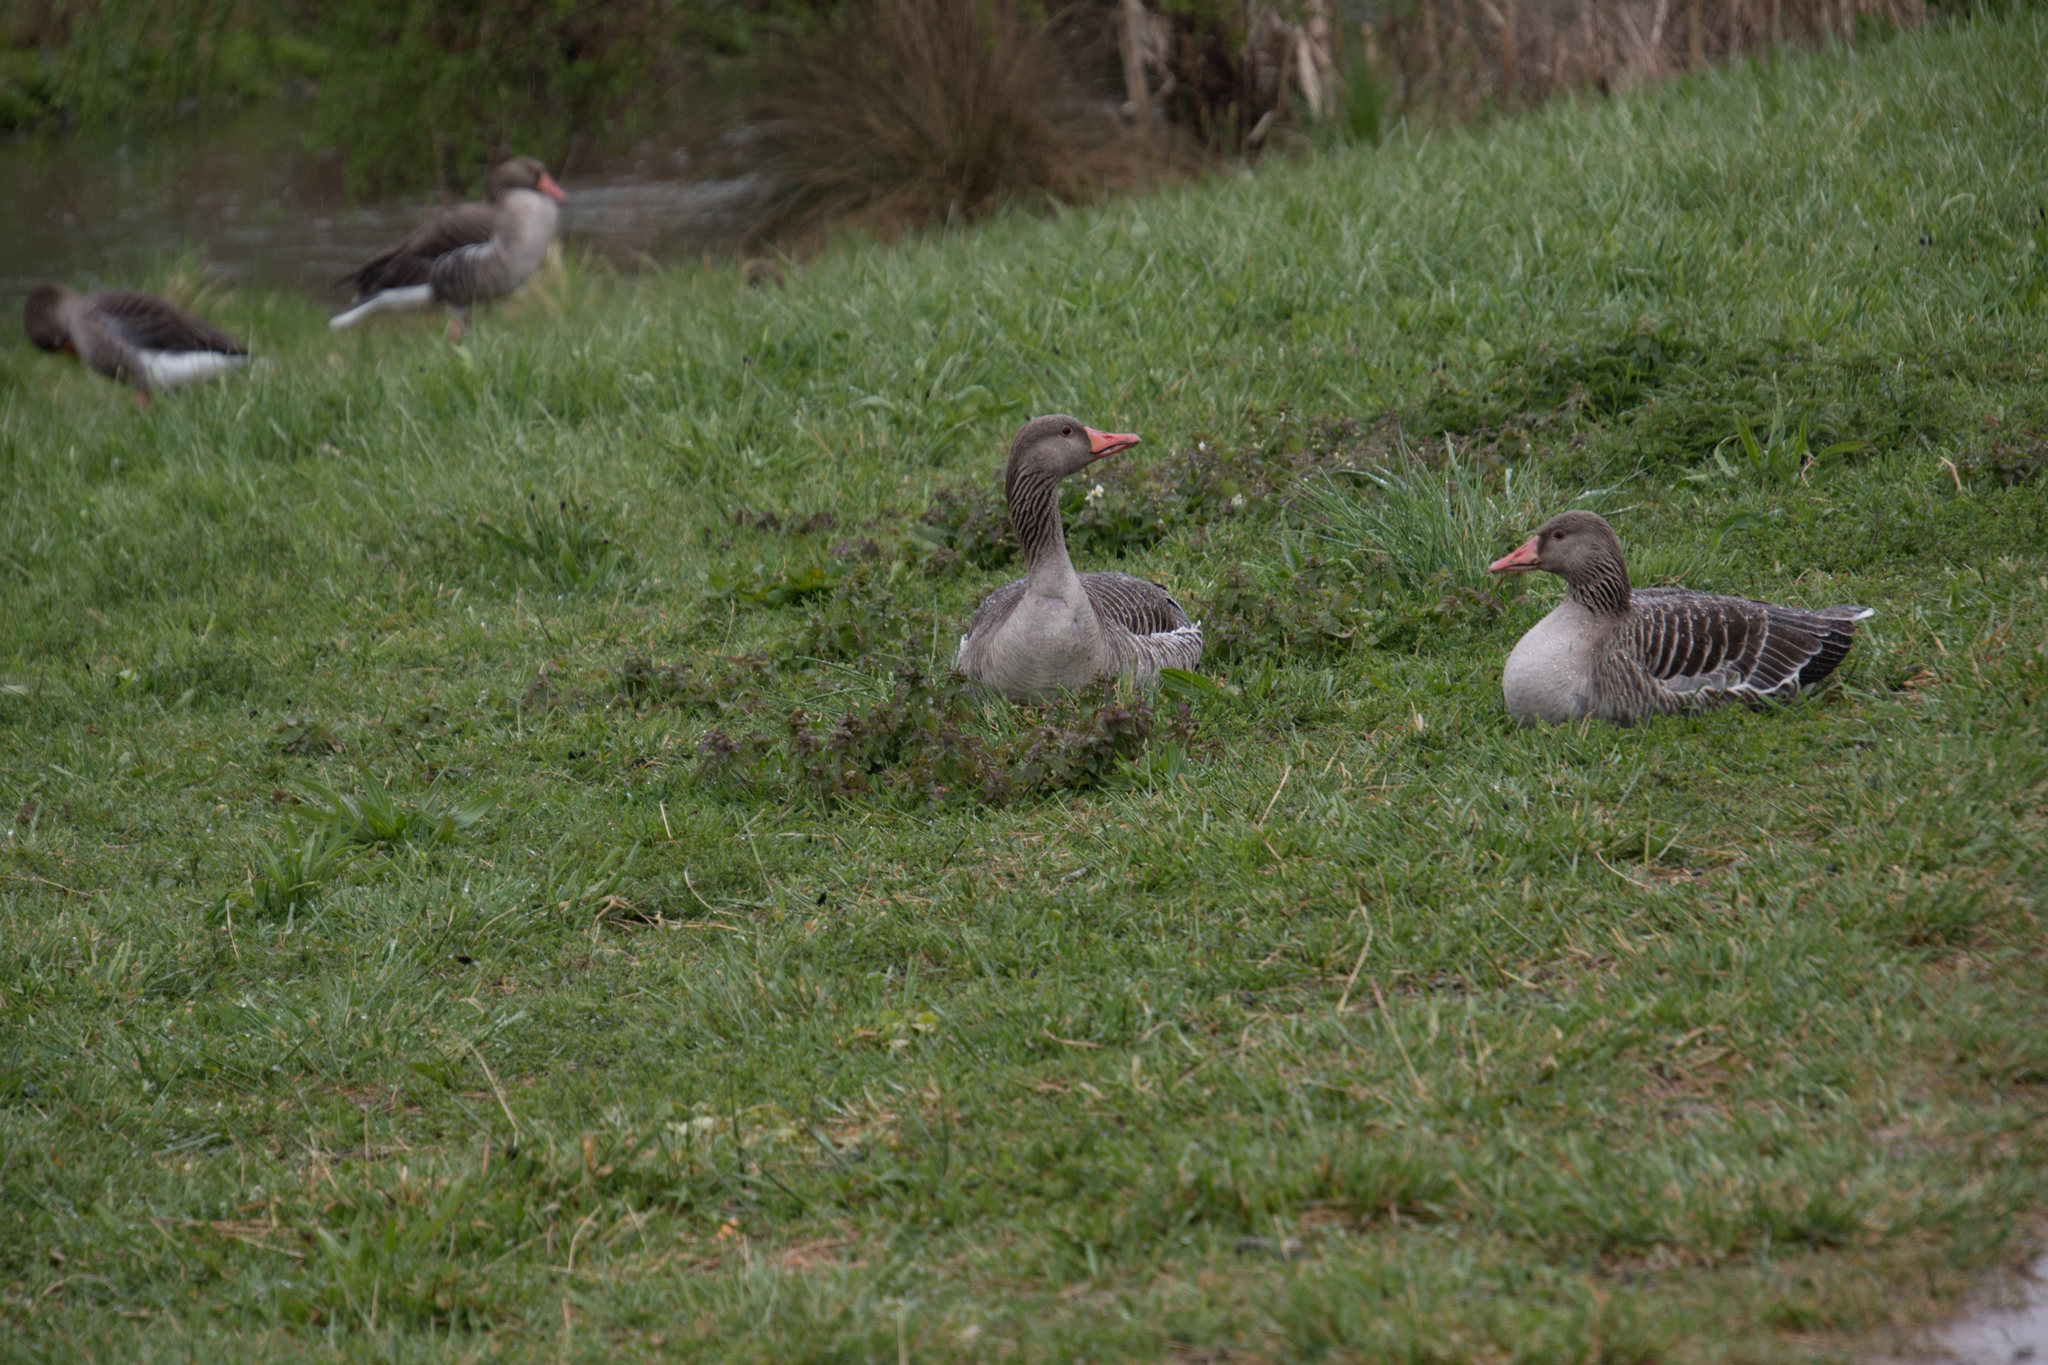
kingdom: Animalia
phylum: Chordata
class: Aves
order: Anseriformes
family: Anatidae
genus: Anser
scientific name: Anser anser
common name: Greylag goose
